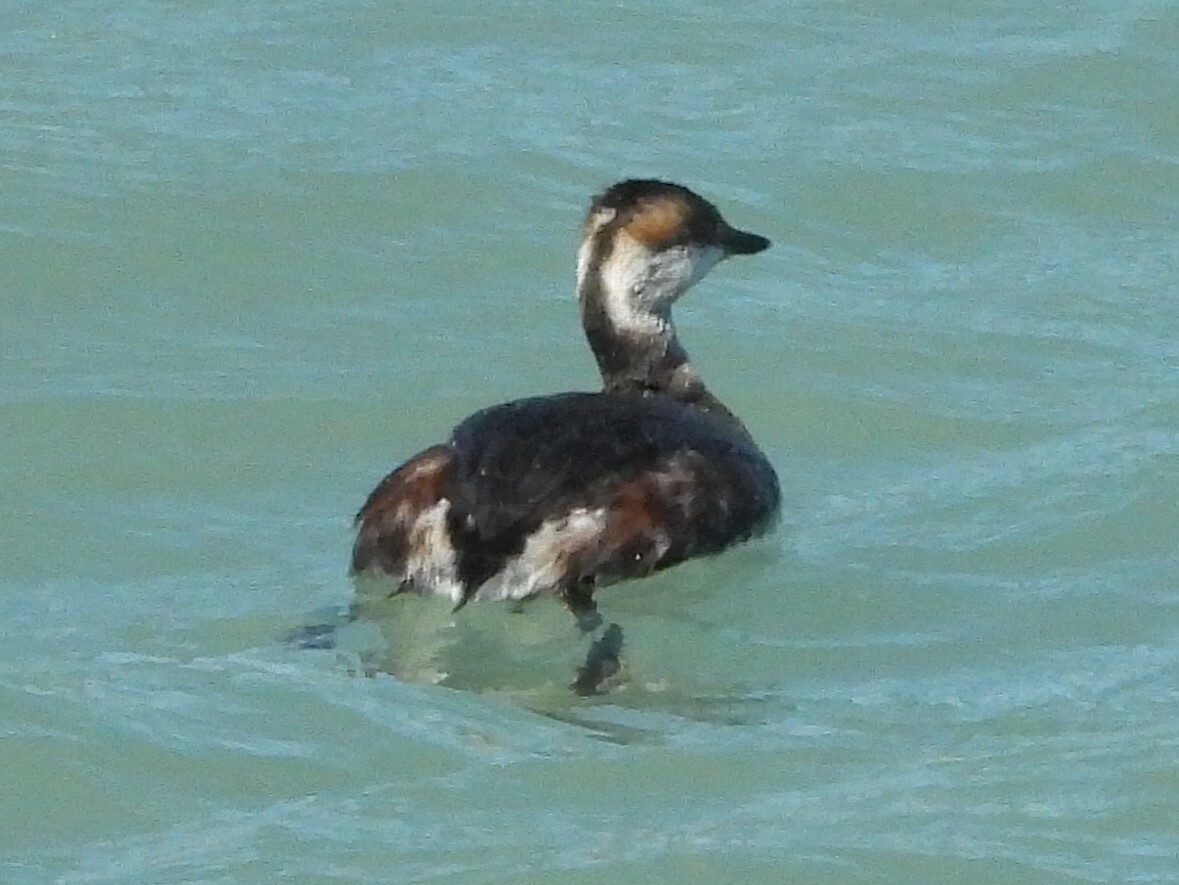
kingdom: Animalia
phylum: Chordata
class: Aves
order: Podicipediformes
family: Podicipedidae
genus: Podiceps
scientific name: Podiceps auritus
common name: Horned grebe
